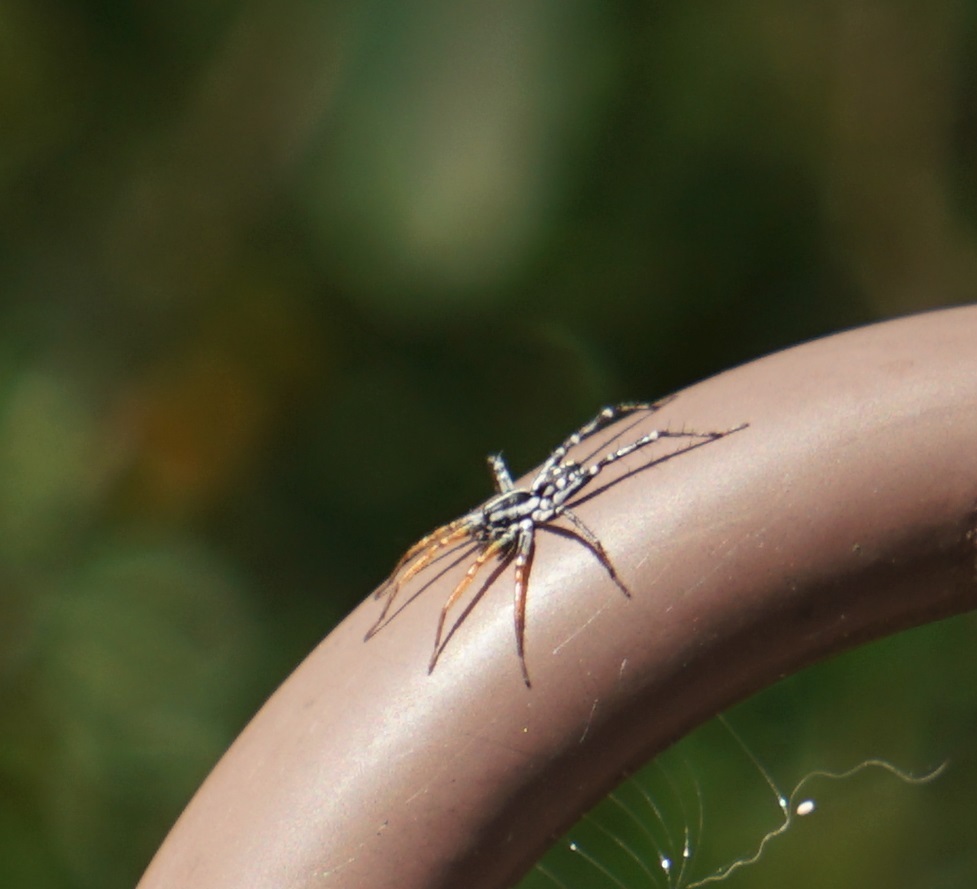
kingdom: Animalia
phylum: Arthropoda
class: Arachnida
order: Araneae
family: Corinnidae
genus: Nyssus
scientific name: Nyssus coloripes
